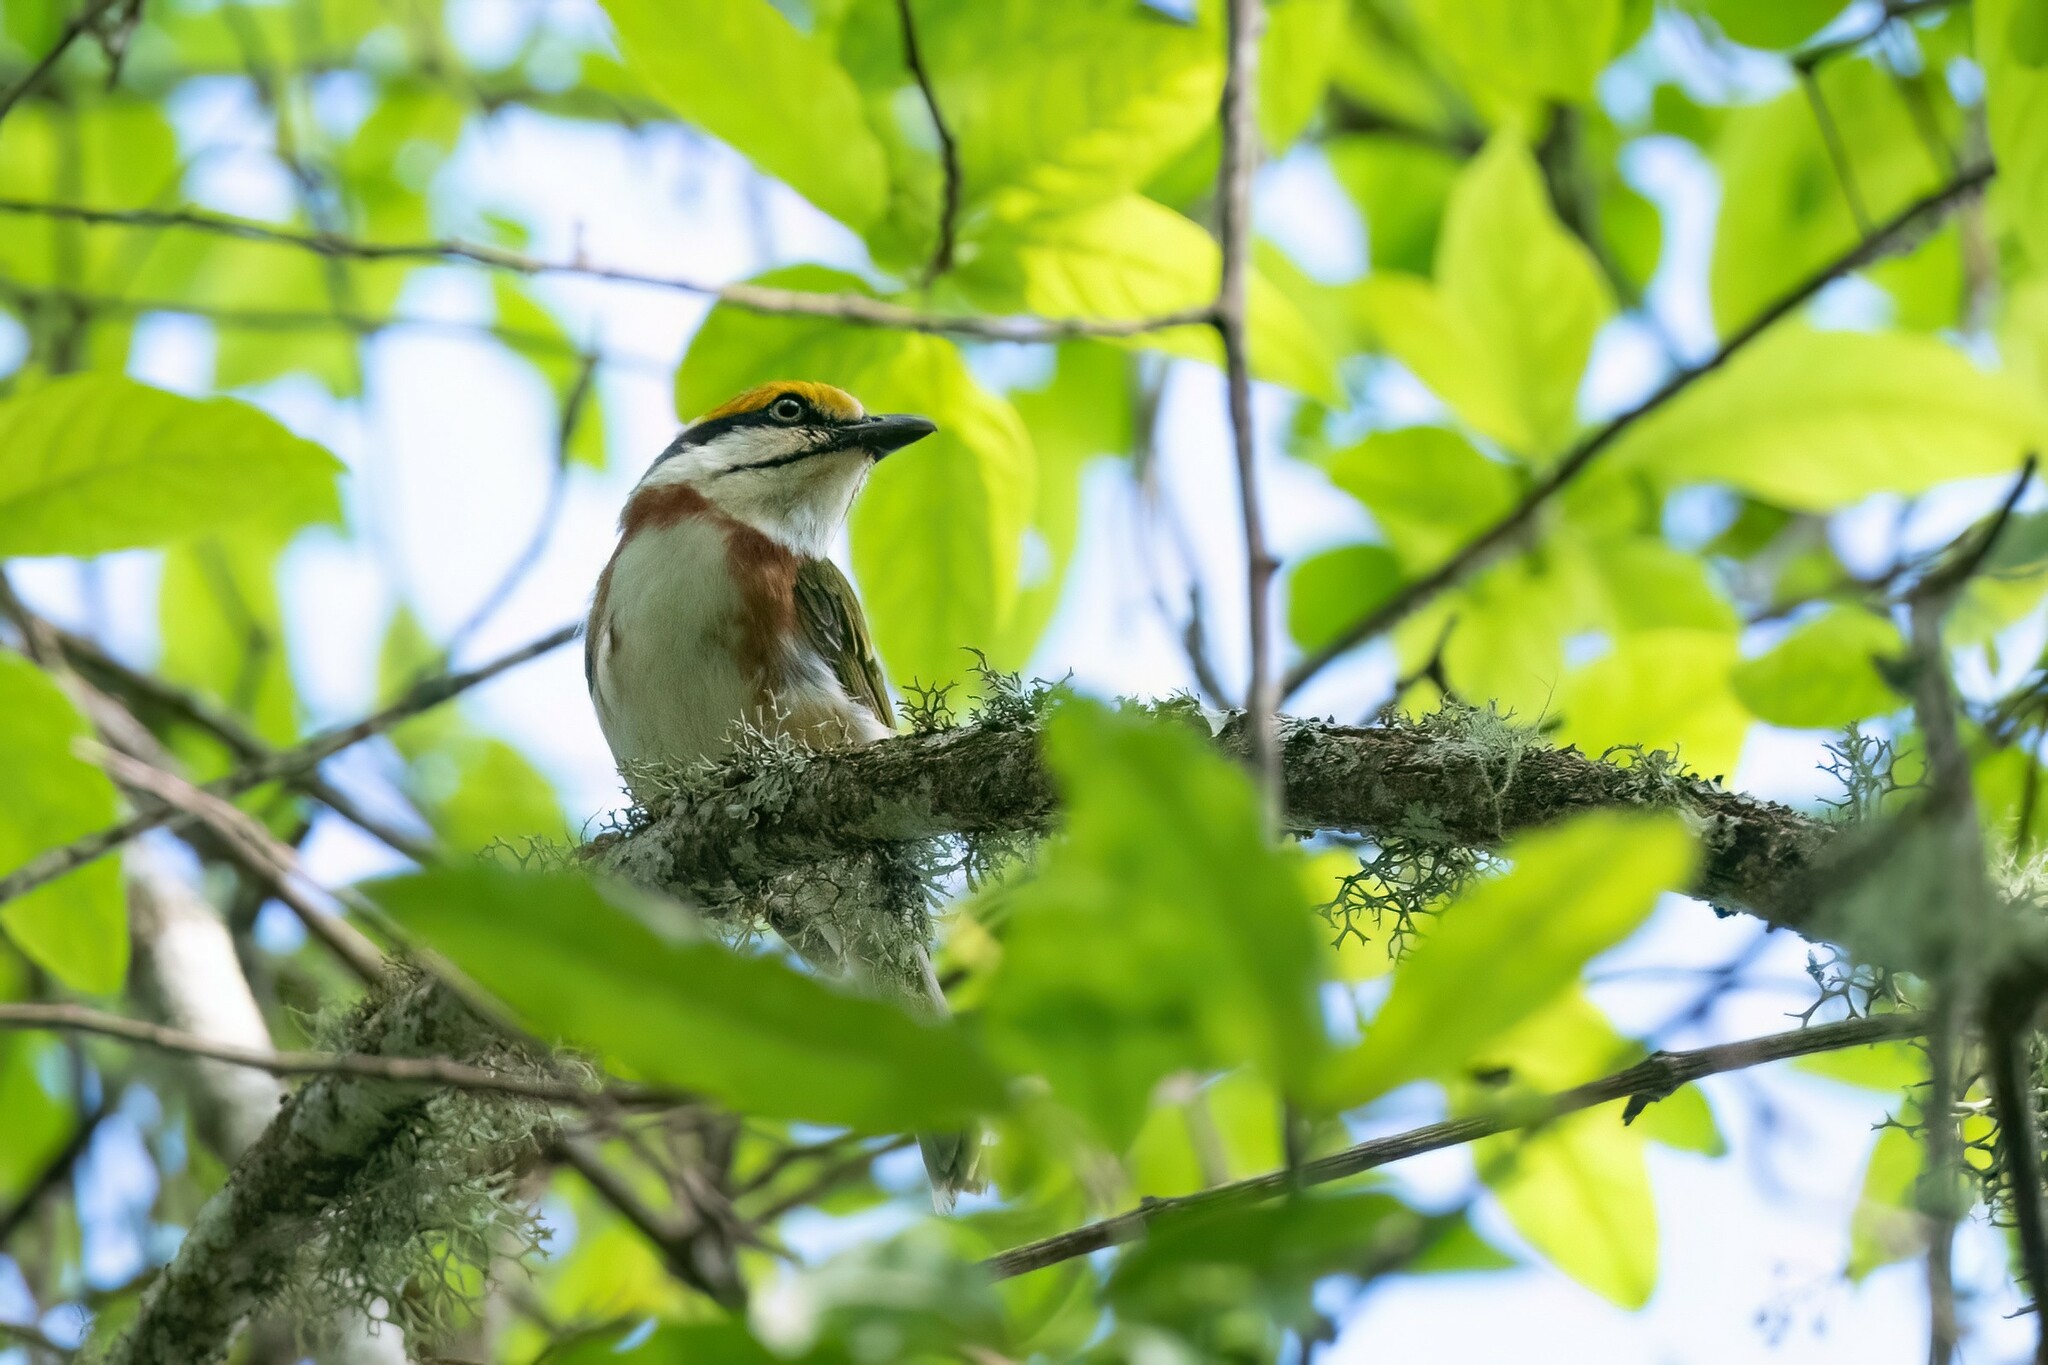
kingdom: Animalia
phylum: Chordata
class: Aves
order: Passeriformes
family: Vireonidae
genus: Vireolanius
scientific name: Vireolanius melitophrys
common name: Chestnut-sided shrike-vireo
